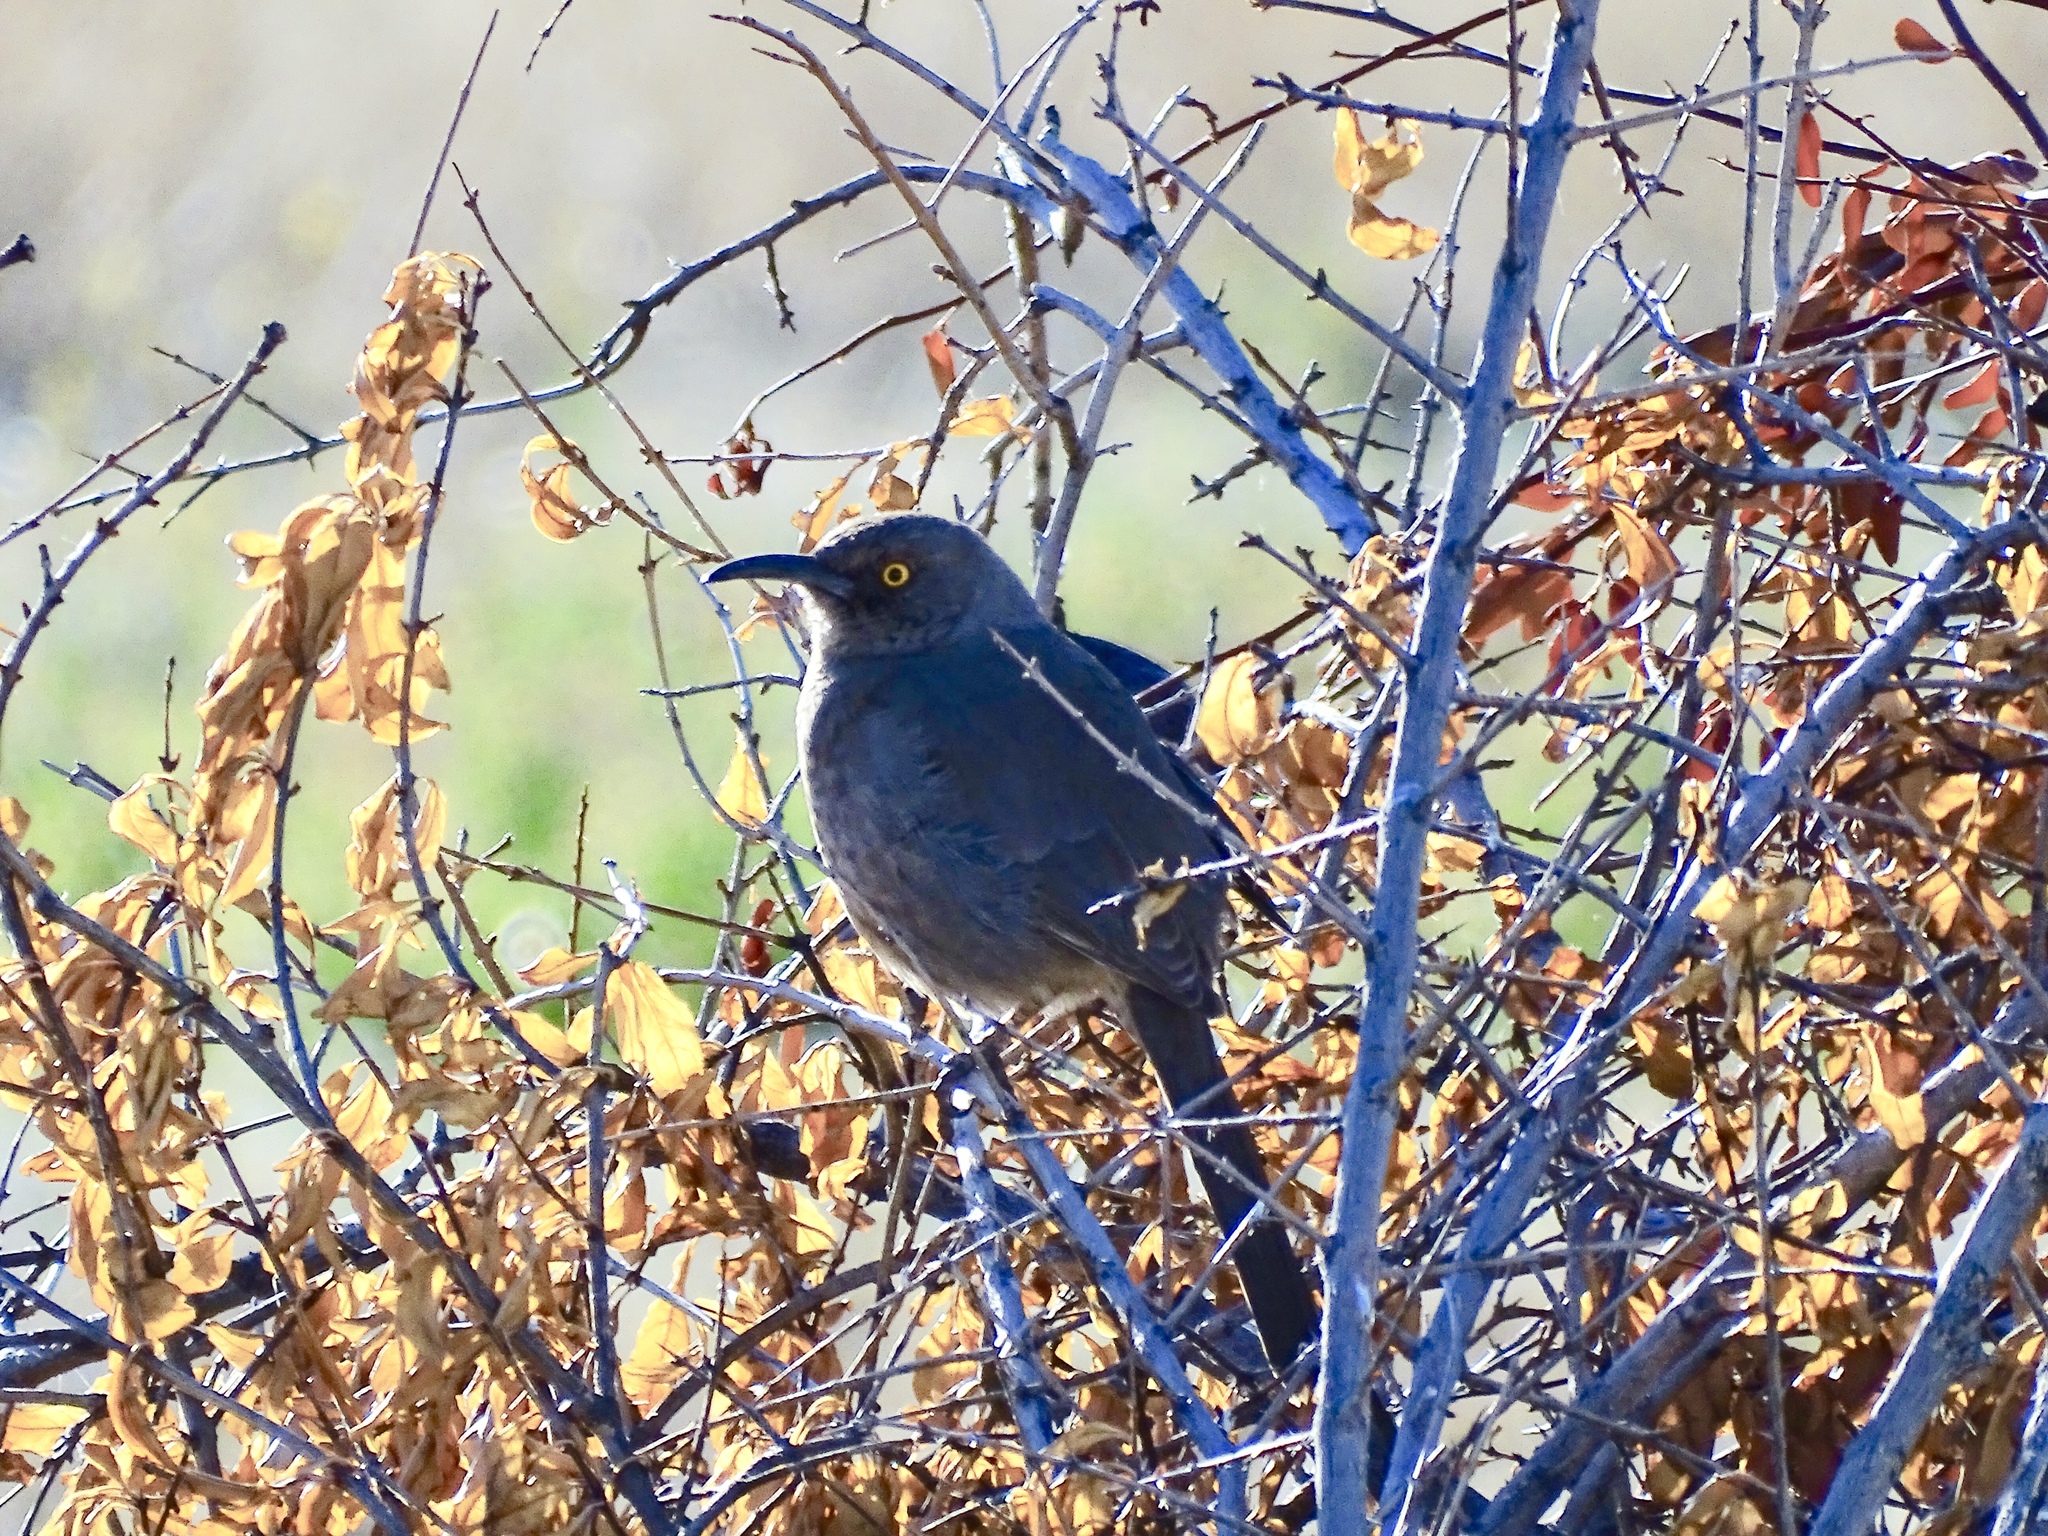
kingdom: Animalia
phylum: Chordata
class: Aves
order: Passeriformes
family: Mimidae
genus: Toxostoma
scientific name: Toxostoma curvirostre
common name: Curve-billed thrasher
